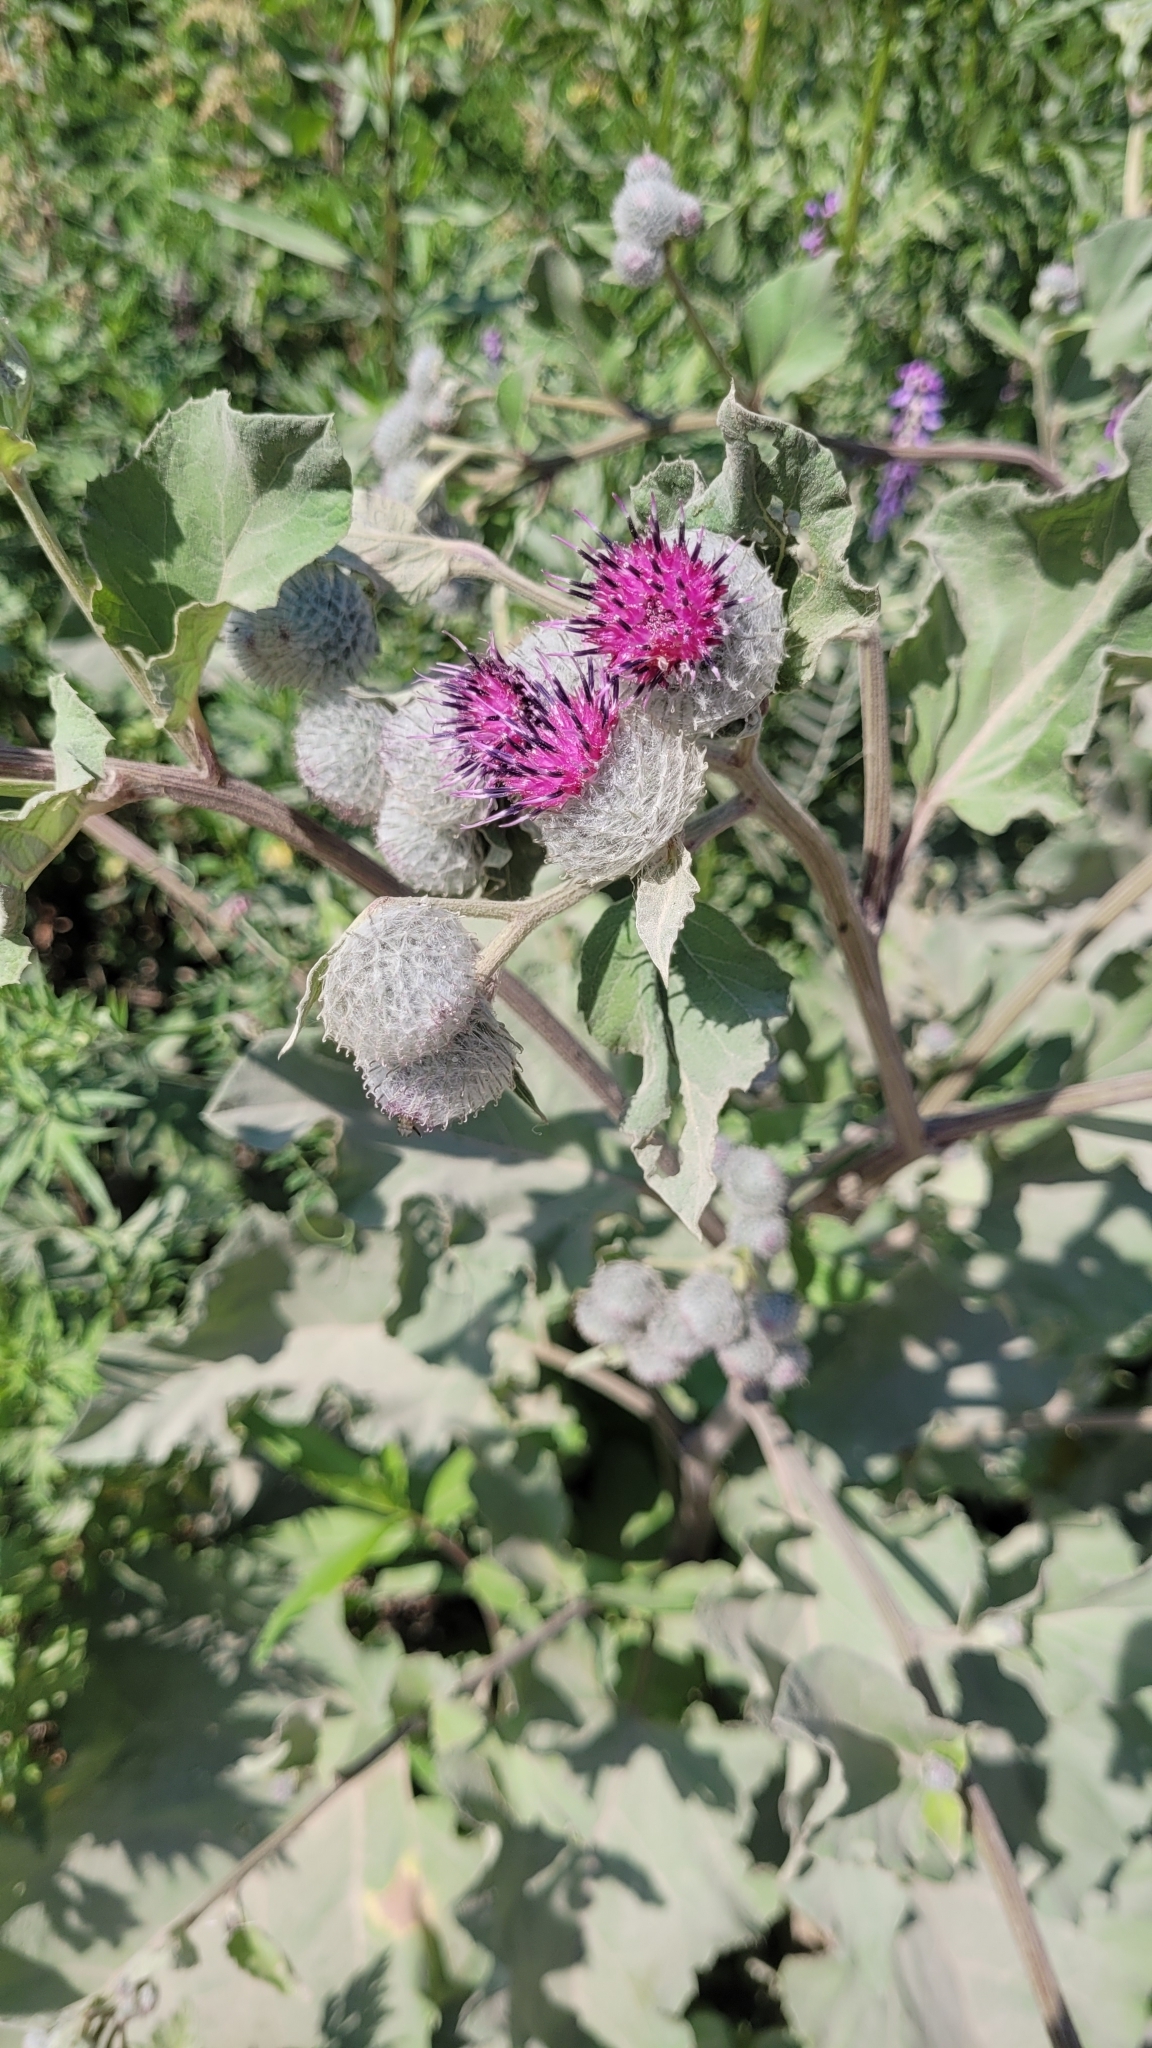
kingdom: Plantae
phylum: Tracheophyta
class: Magnoliopsida
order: Asterales
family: Asteraceae
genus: Arctium
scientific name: Arctium tomentosum
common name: Woolly burdock
